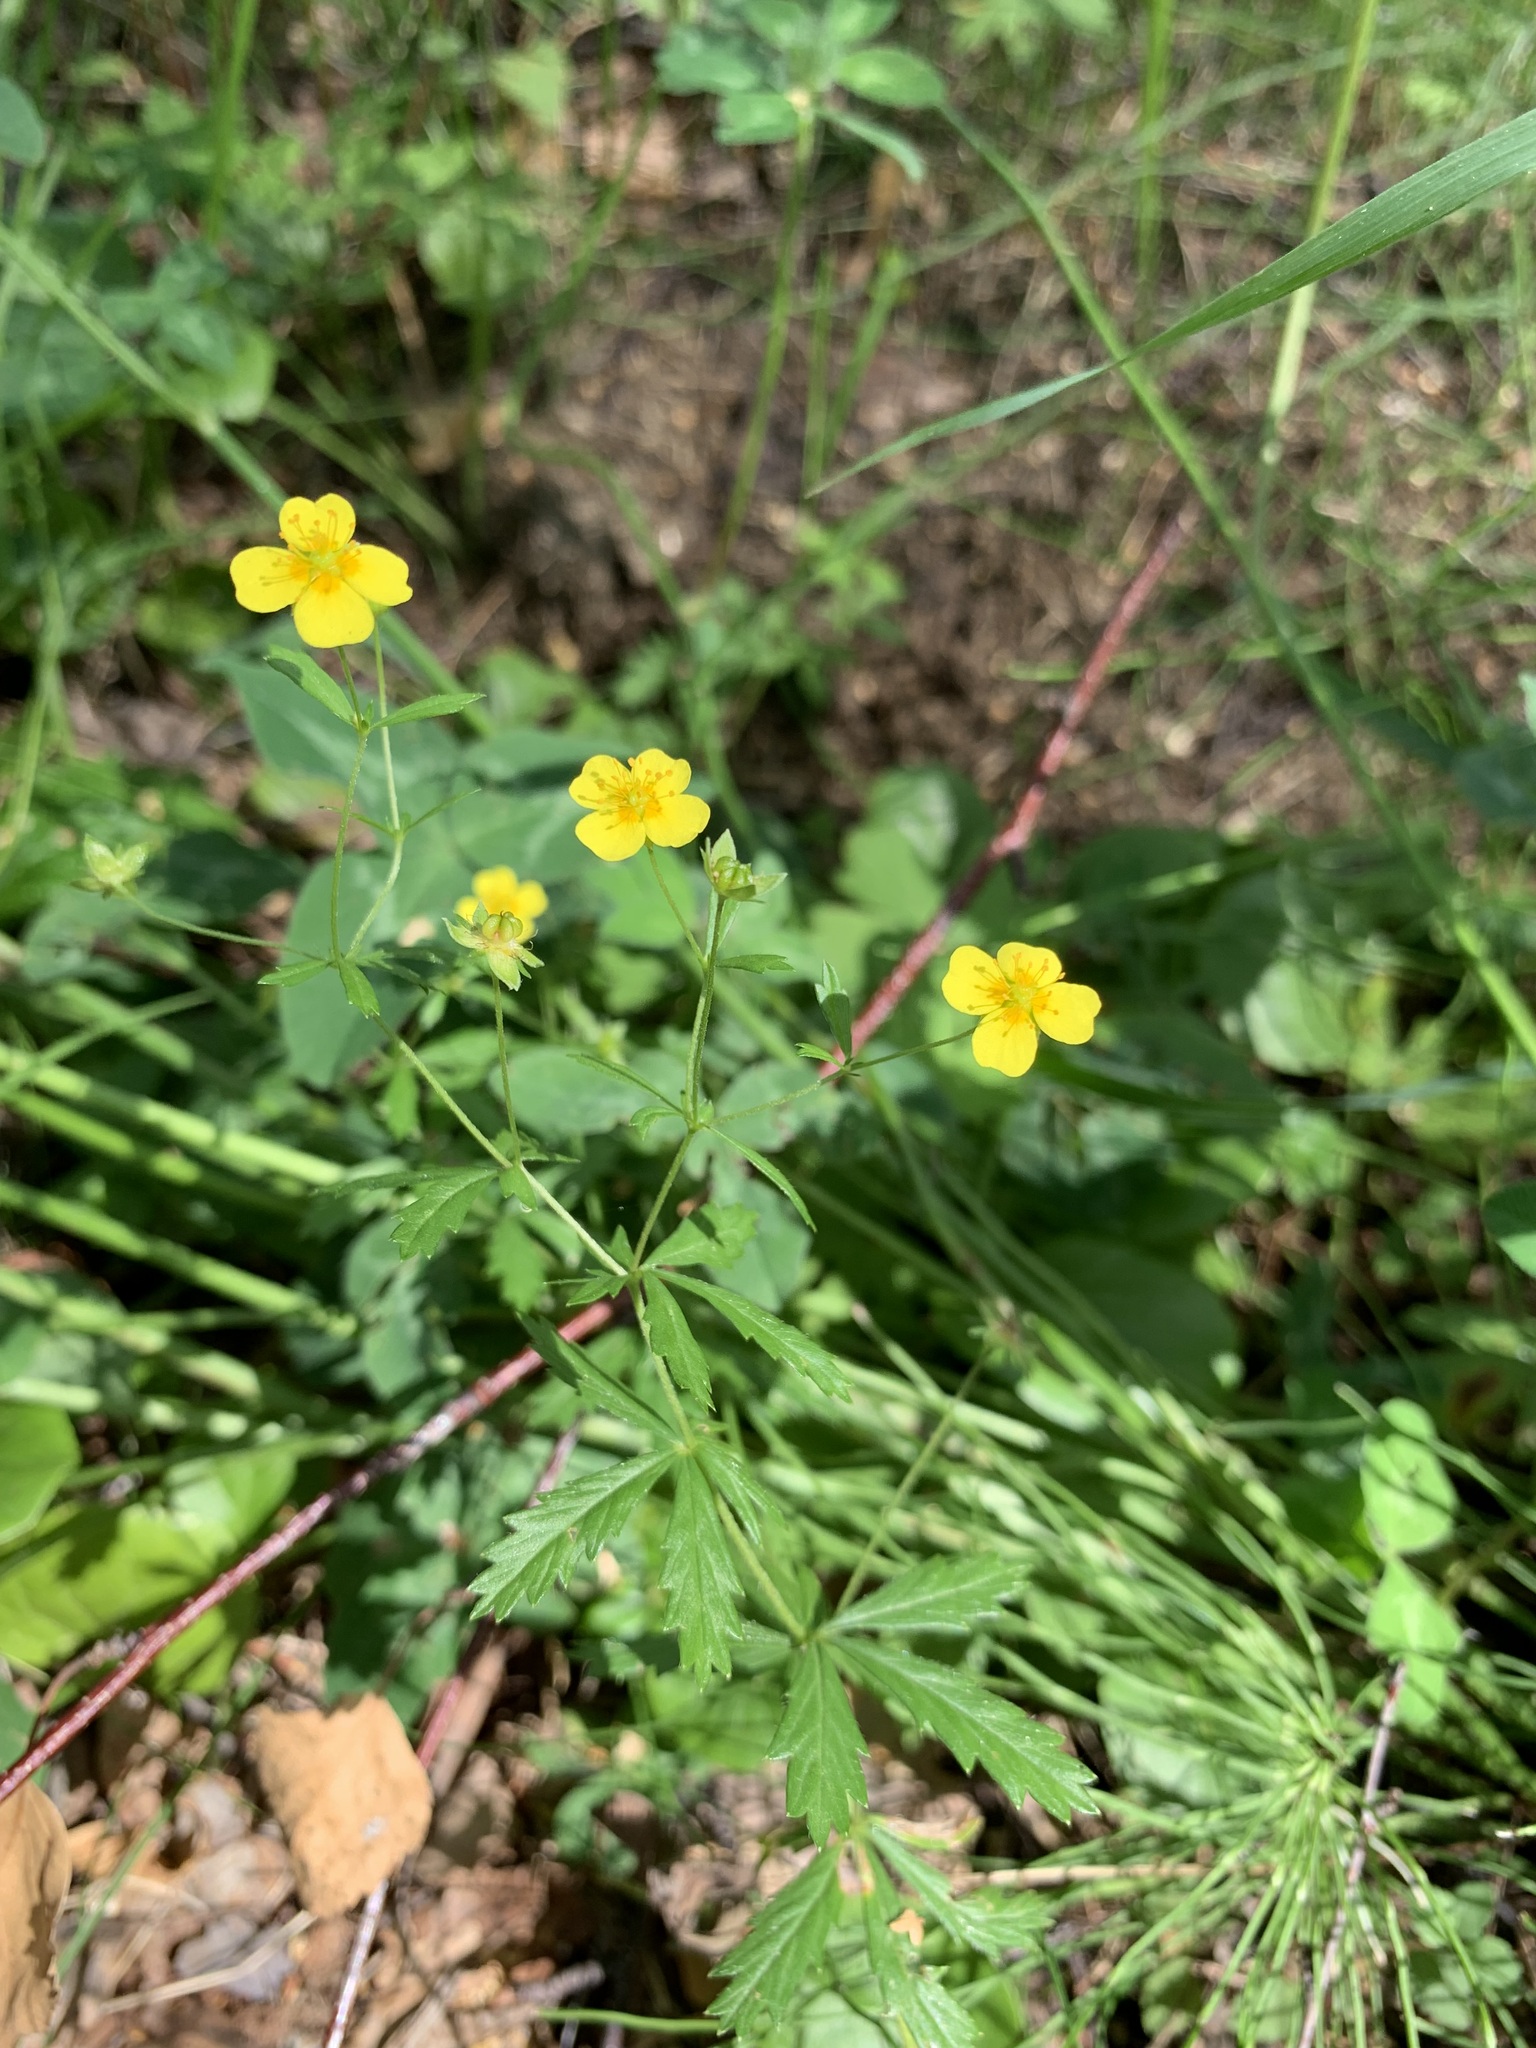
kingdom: Plantae
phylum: Tracheophyta
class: Magnoliopsida
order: Rosales
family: Rosaceae
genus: Potentilla
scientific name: Potentilla erecta
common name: Tormentil
